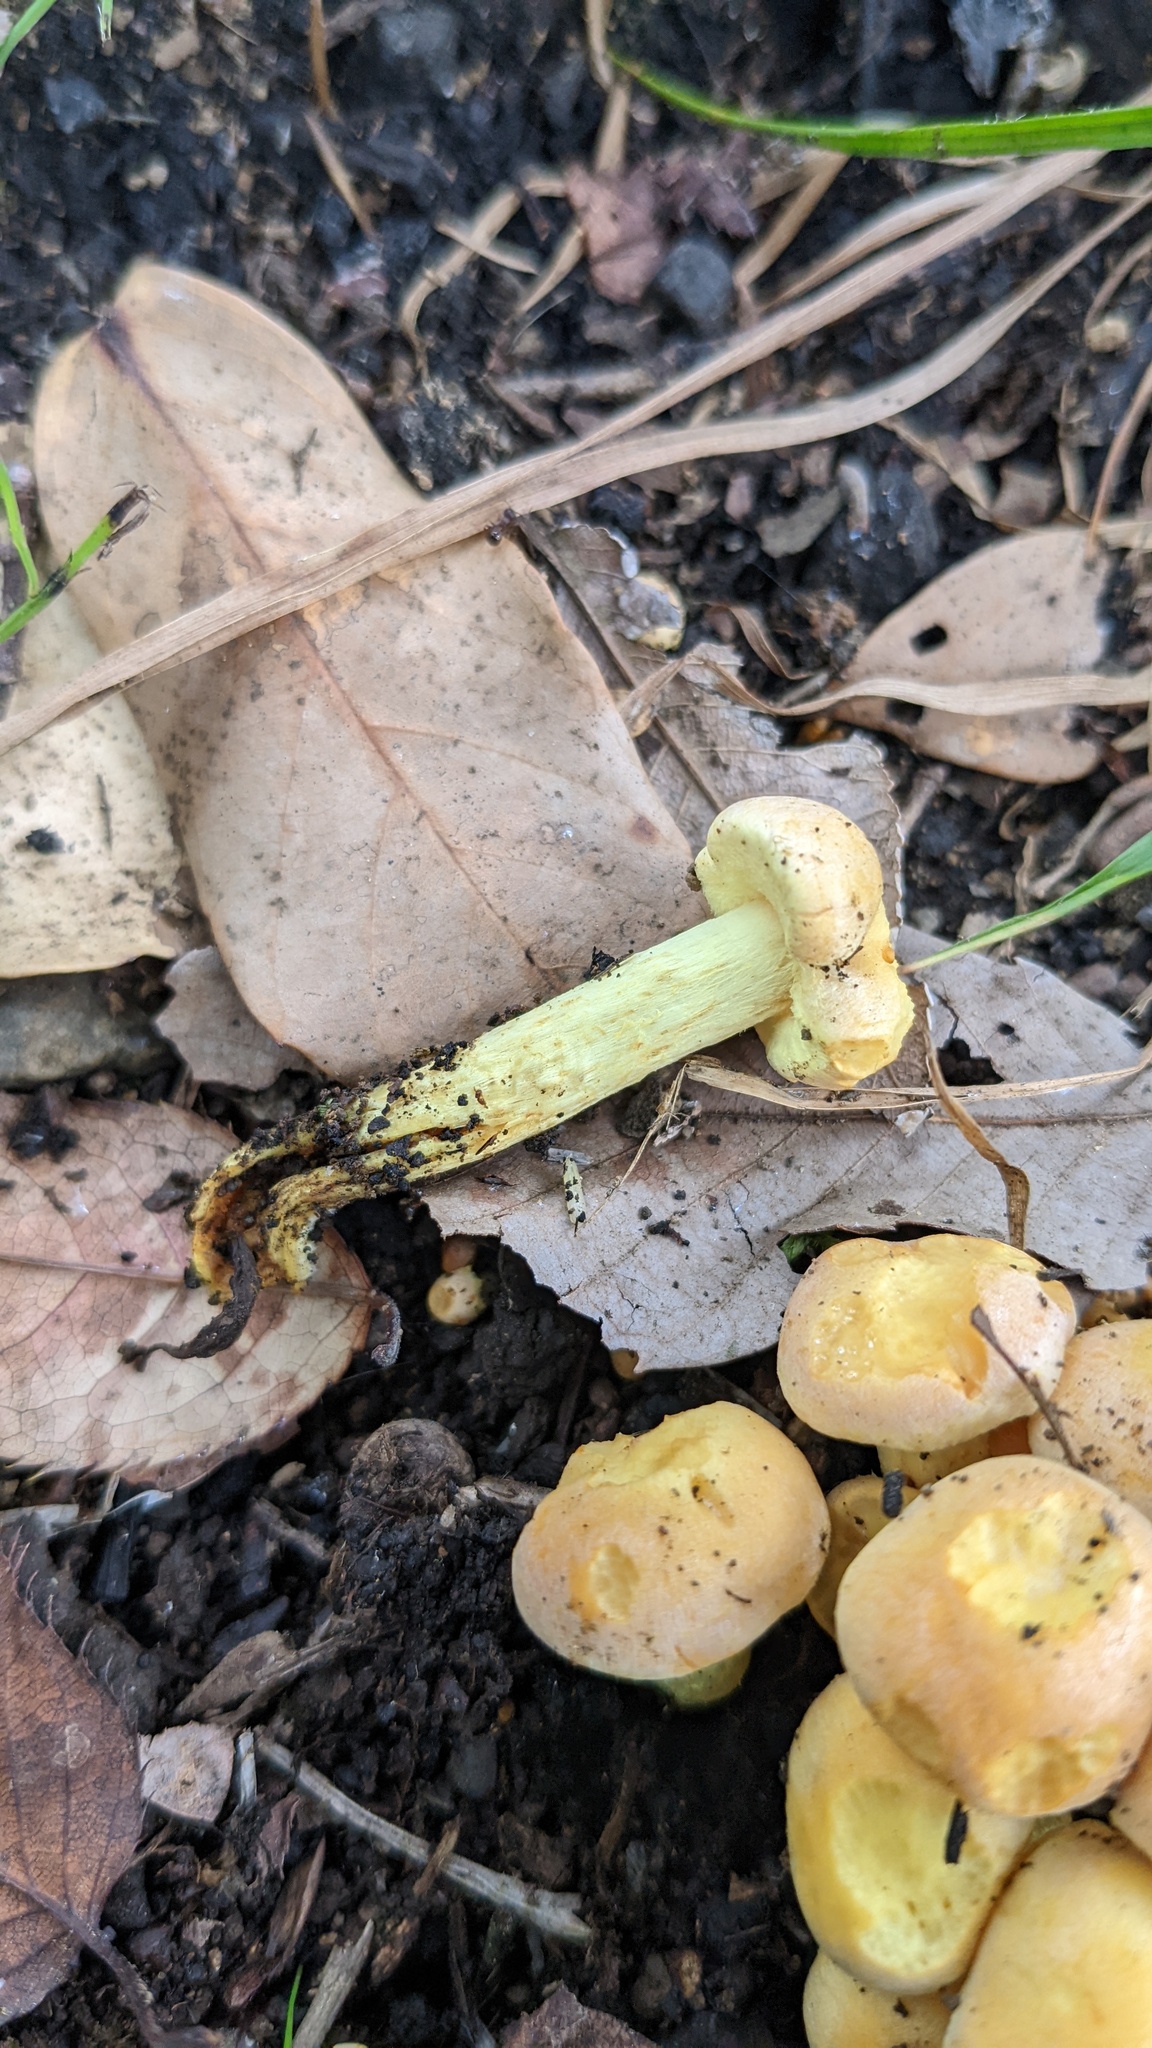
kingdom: Fungi
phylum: Basidiomycota
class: Agaricomycetes
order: Agaricales
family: Strophariaceae
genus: Hypholoma
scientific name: Hypholoma fasciculare
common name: Sulphur tuft
